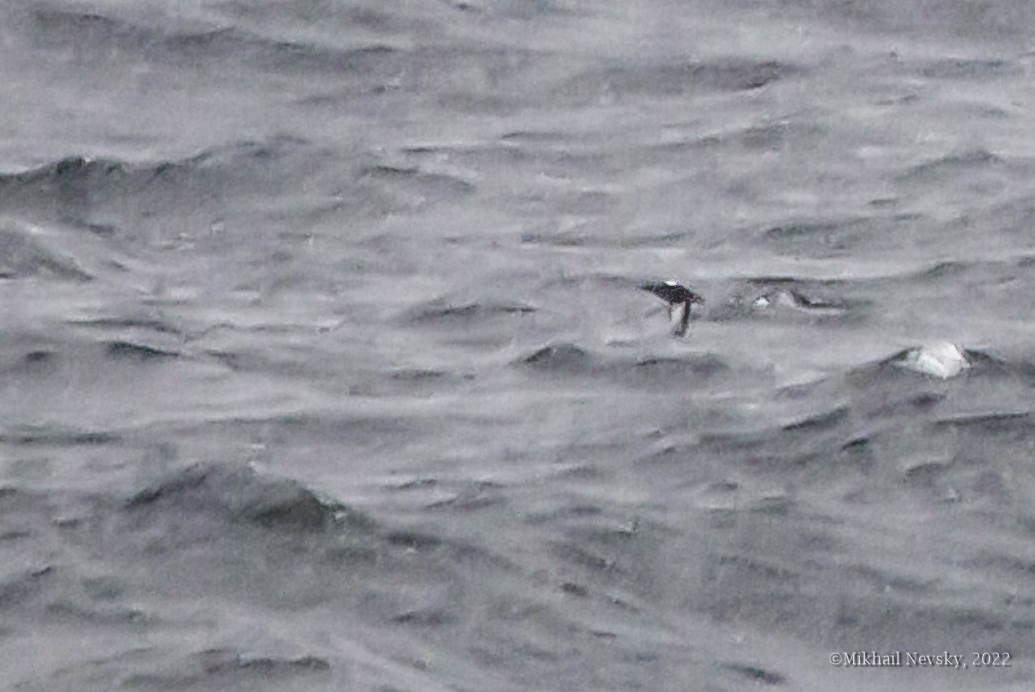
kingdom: Animalia
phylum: Chordata
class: Aves
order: Charadriiformes
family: Alcidae
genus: Cepphus
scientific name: Cepphus grylle
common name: Black guillemot
